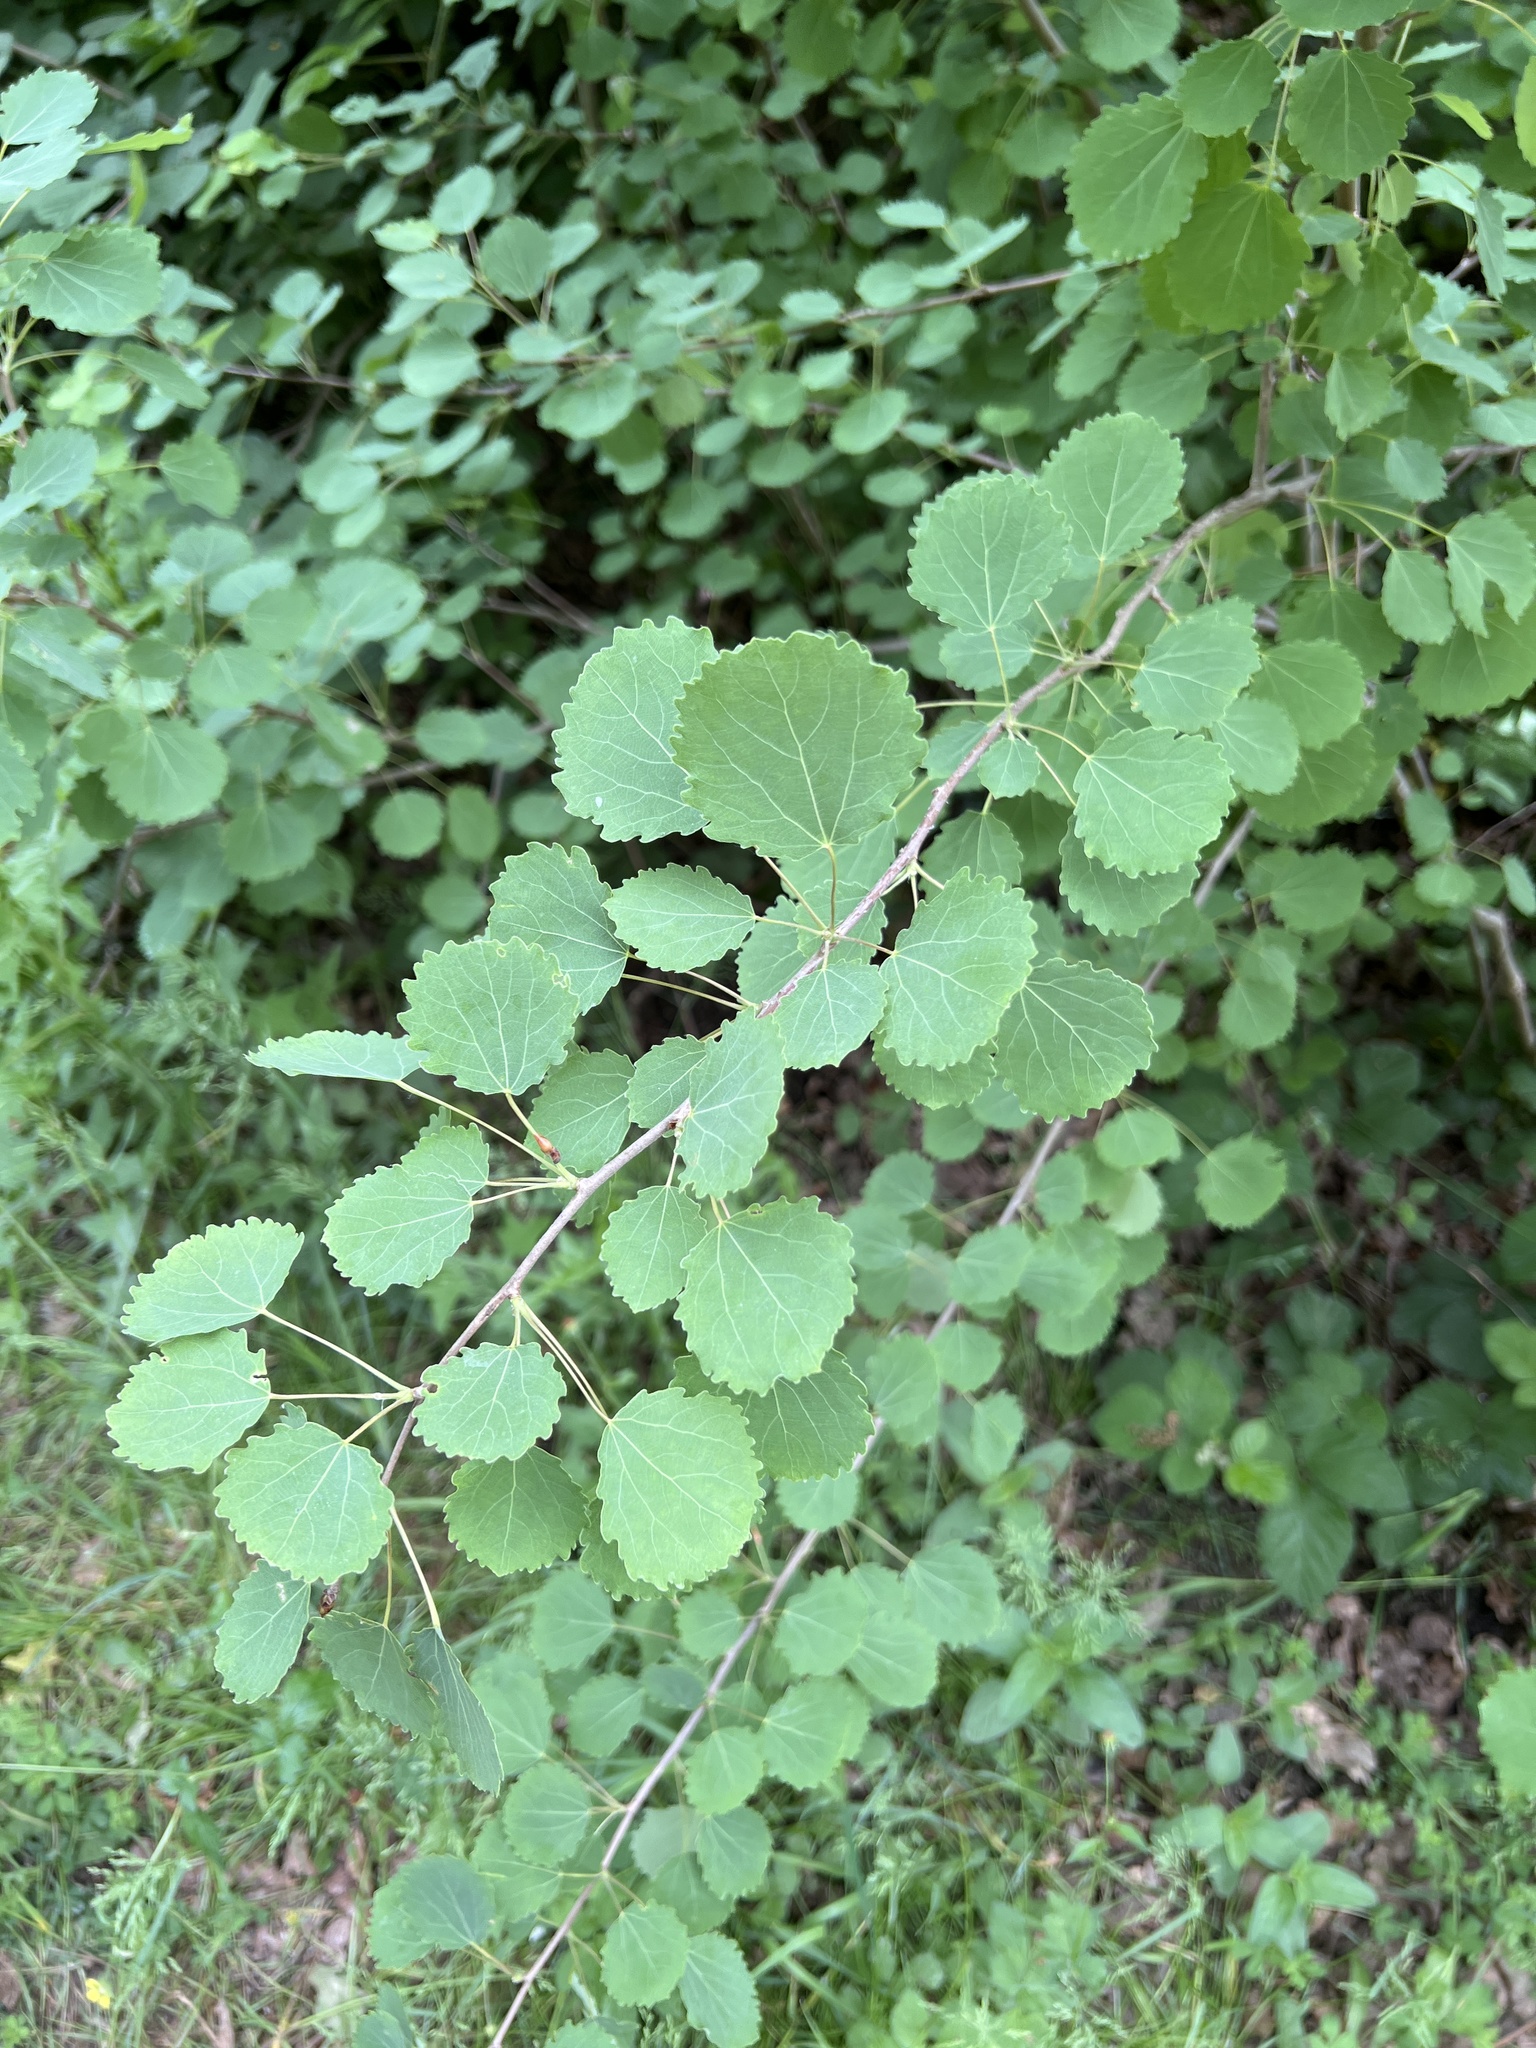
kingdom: Plantae
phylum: Tracheophyta
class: Magnoliopsida
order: Malpighiales
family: Salicaceae
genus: Populus
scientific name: Populus tremula
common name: European aspen
